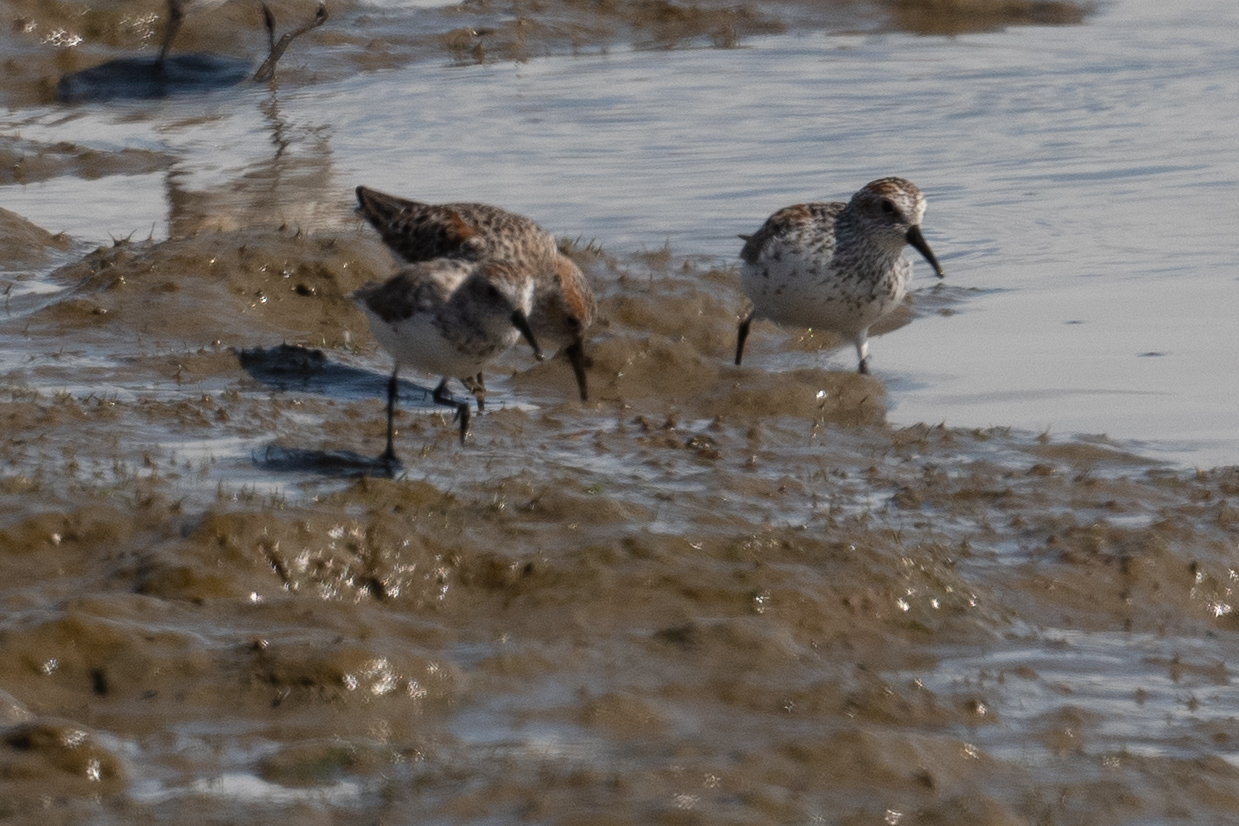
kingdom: Animalia
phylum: Chordata
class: Aves
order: Charadriiformes
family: Scolopacidae
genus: Calidris
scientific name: Calidris mauri
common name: Western sandpiper
